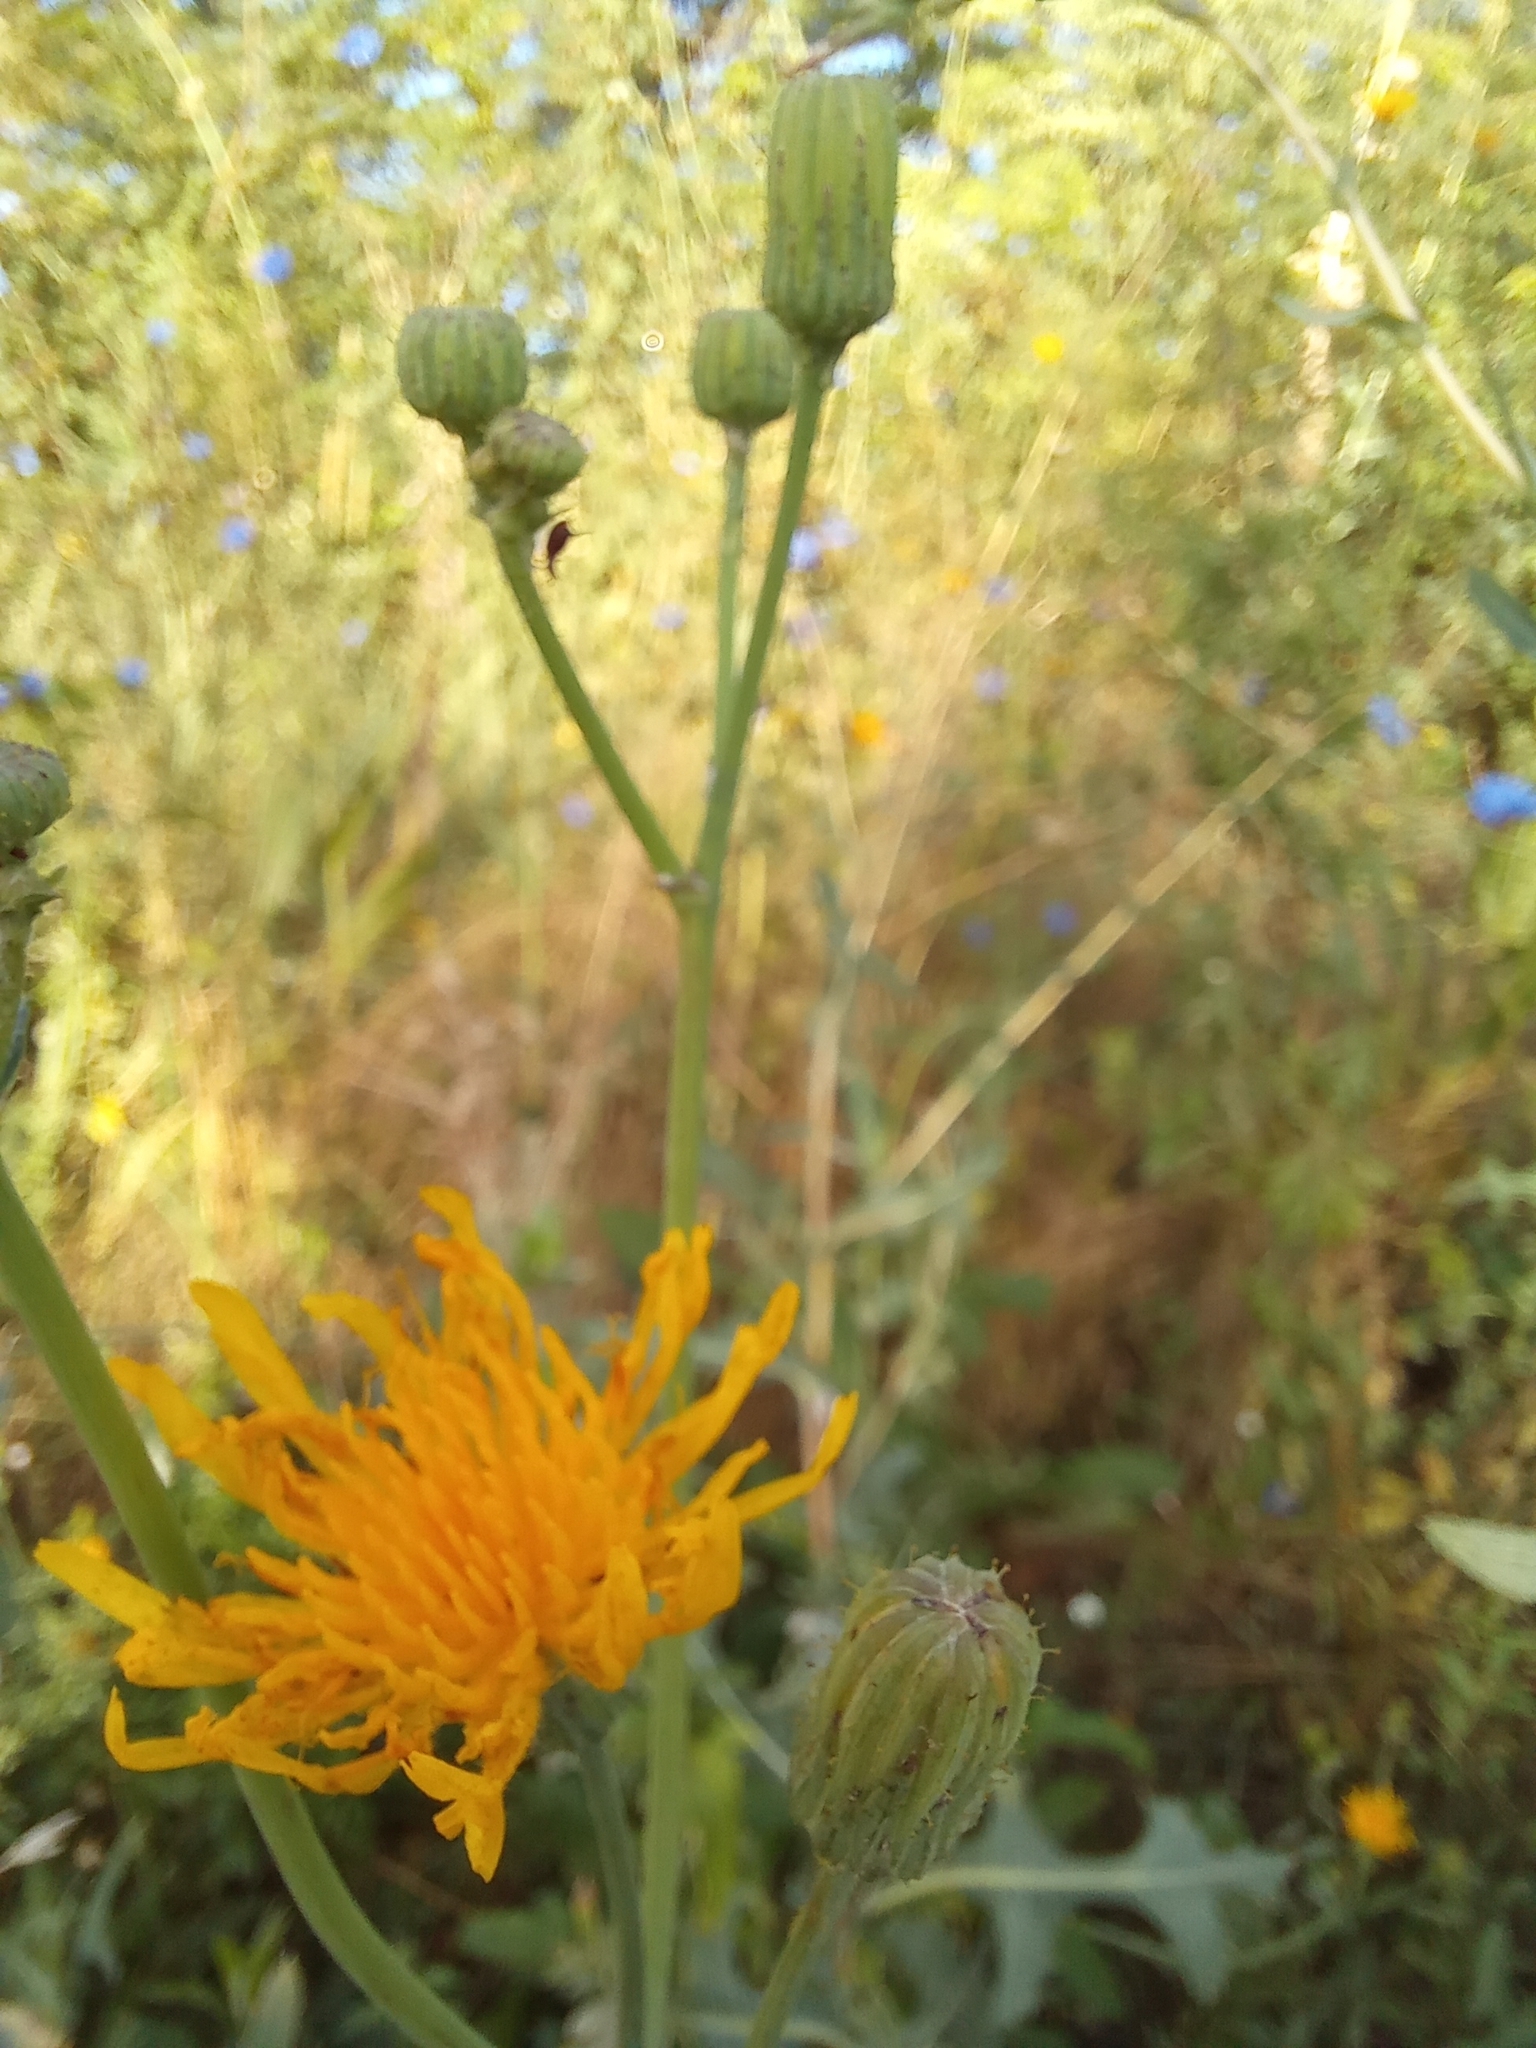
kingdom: Plantae
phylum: Tracheophyta
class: Magnoliopsida
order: Asterales
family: Asteraceae
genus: Sonchus
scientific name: Sonchus arvensis
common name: Perennial sow-thistle
